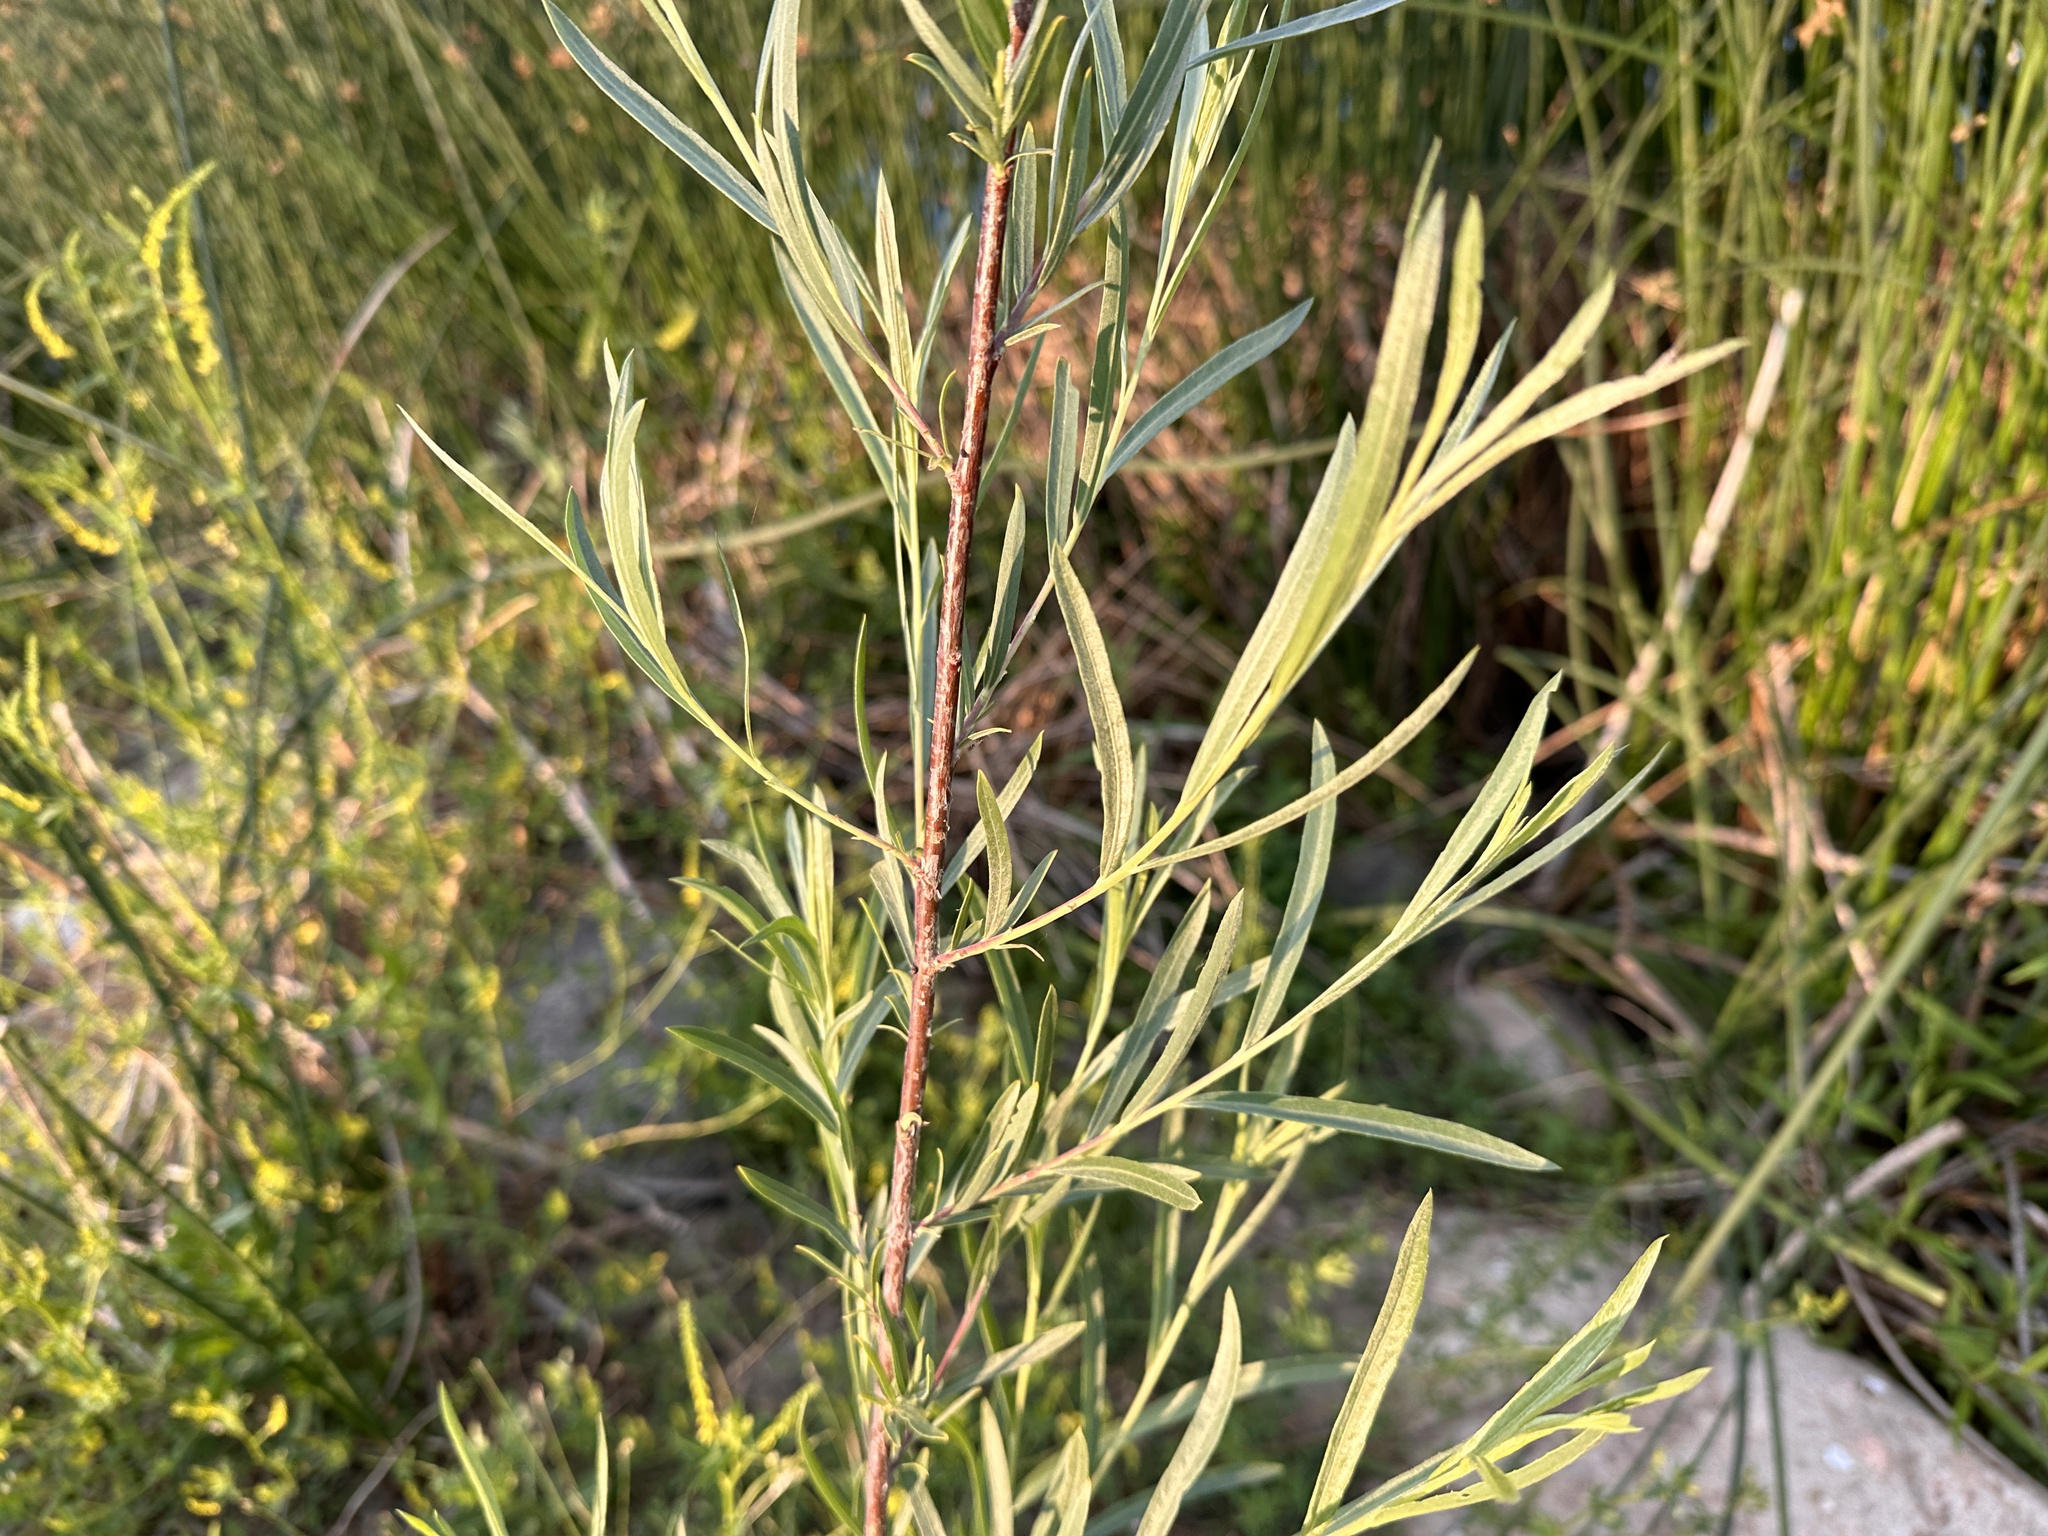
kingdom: Plantae
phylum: Tracheophyta
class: Magnoliopsida
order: Malpighiales
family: Salicaceae
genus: Salix
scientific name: Salix exigua
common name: Coyote willow
